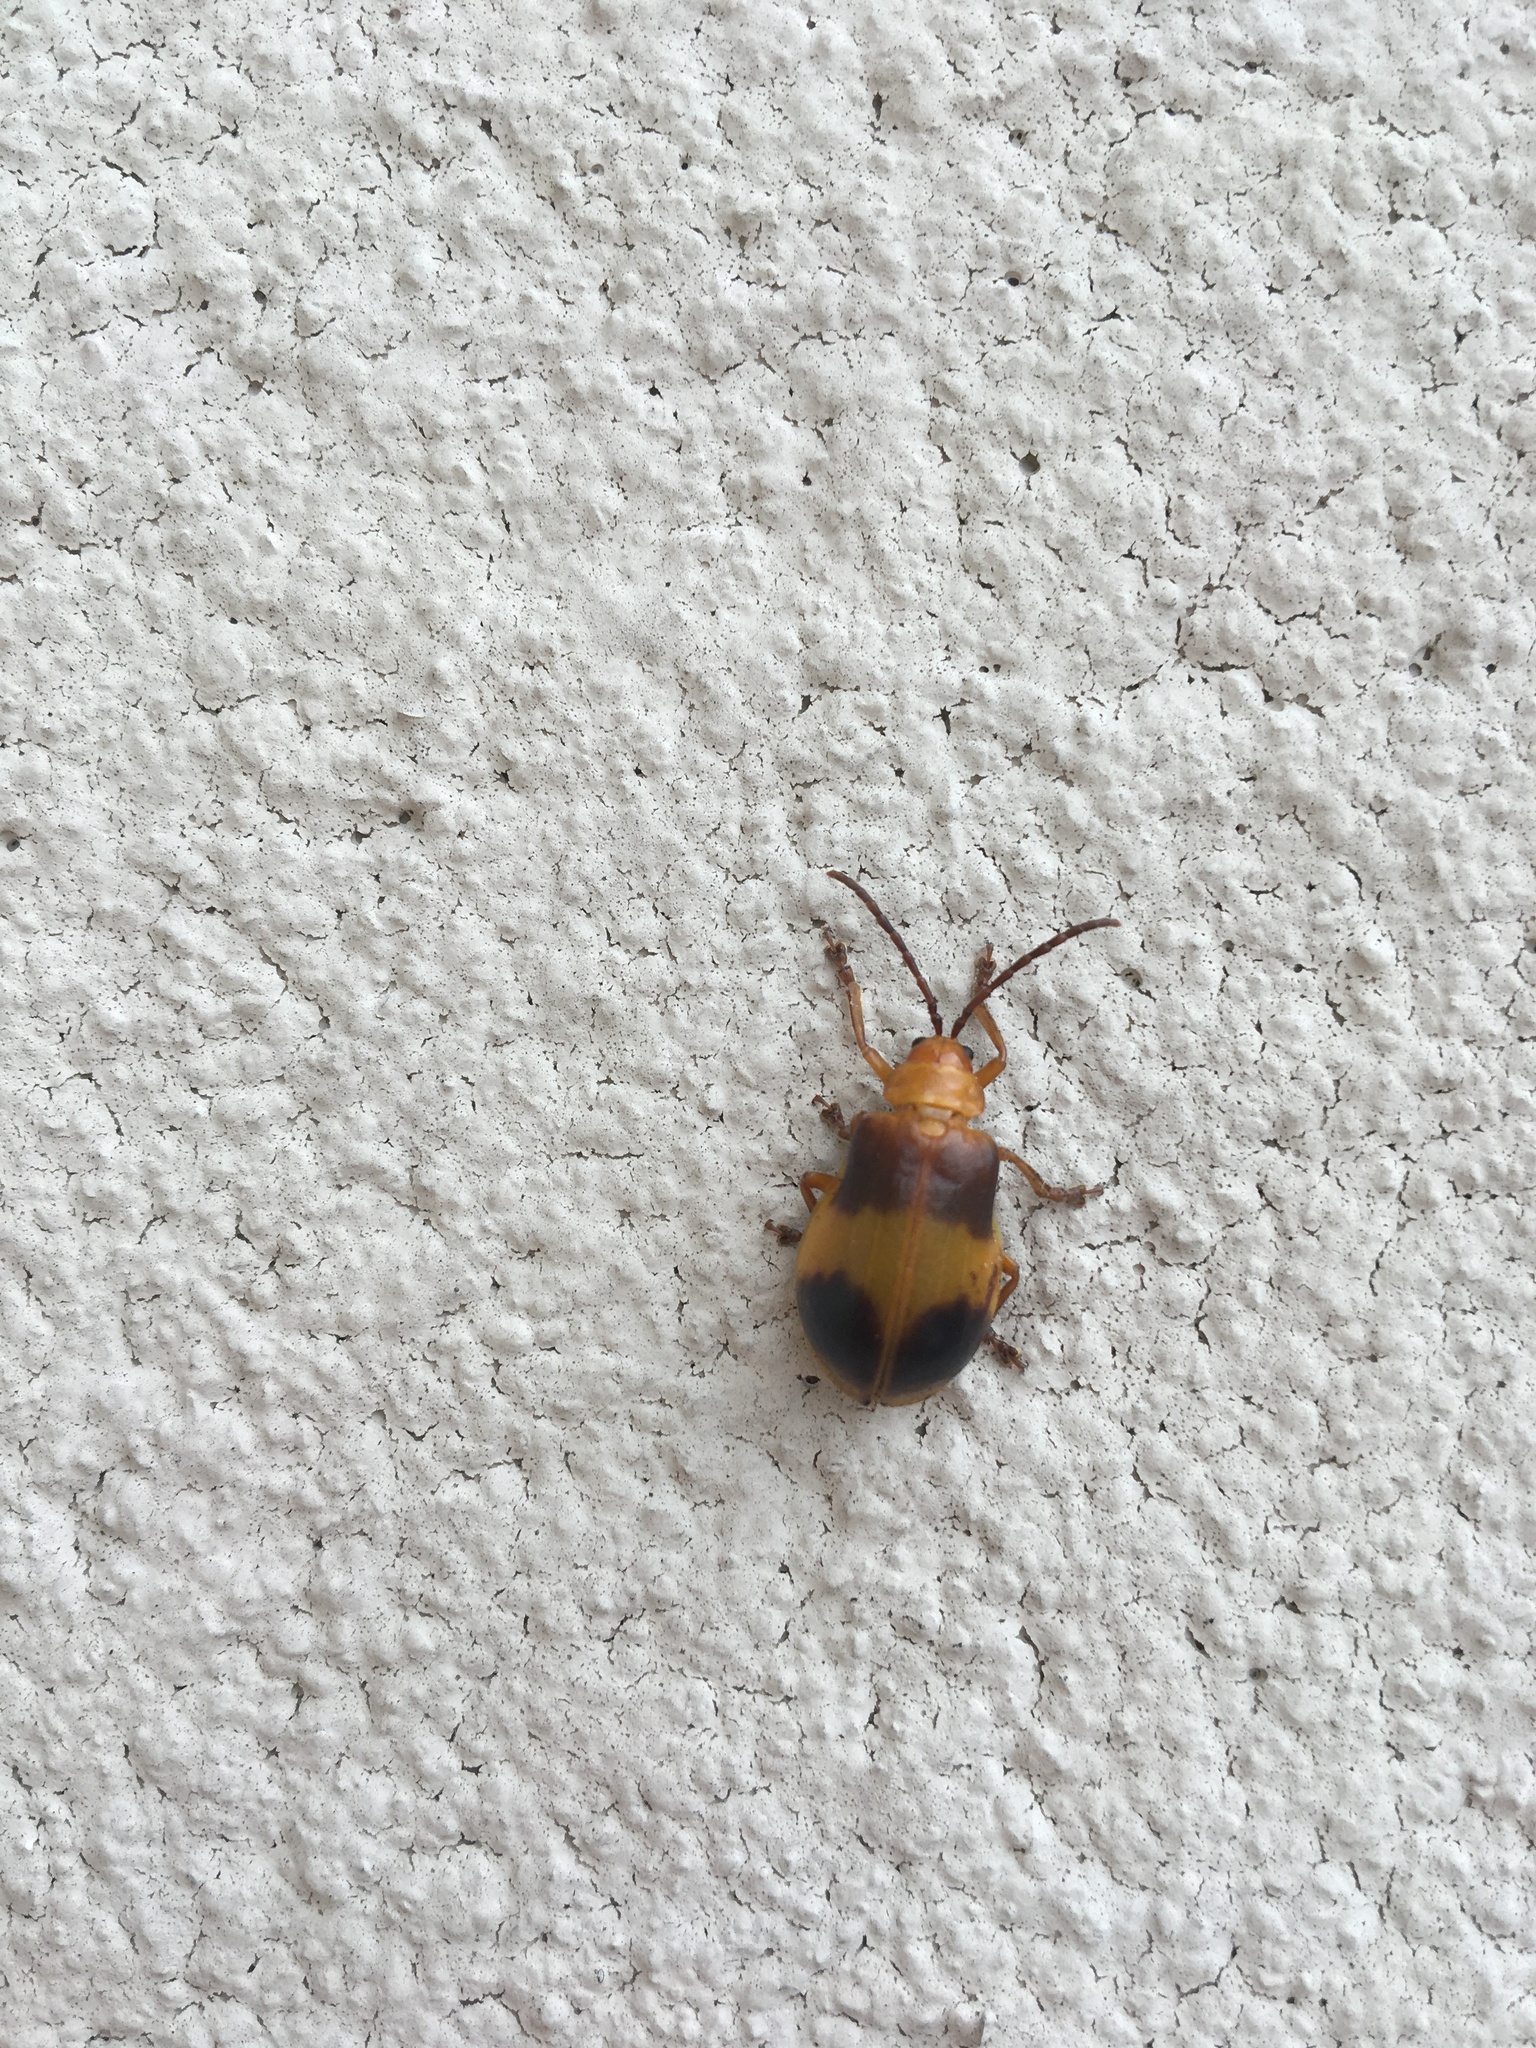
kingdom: Animalia
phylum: Arthropoda
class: Insecta
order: Coleoptera
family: Chrysomelidae
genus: Monocesta
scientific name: Monocesta coryli
